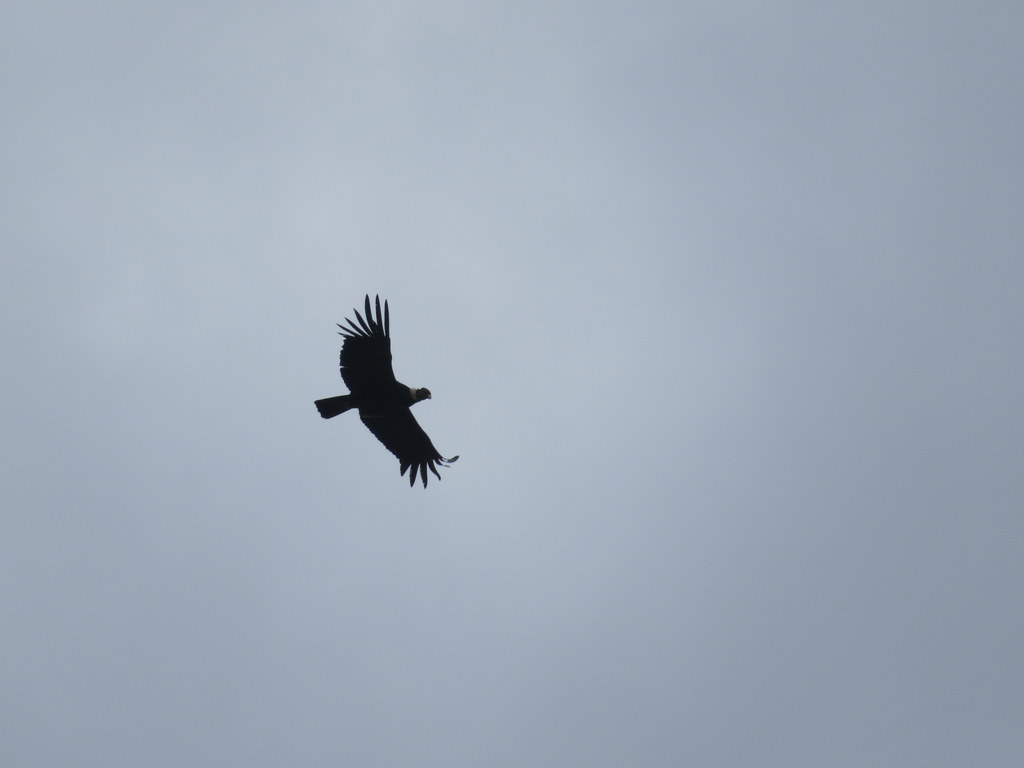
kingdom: Animalia
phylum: Chordata
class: Aves
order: Accipitriformes
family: Cathartidae
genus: Vultur
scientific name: Vultur gryphus
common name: Andean condor
